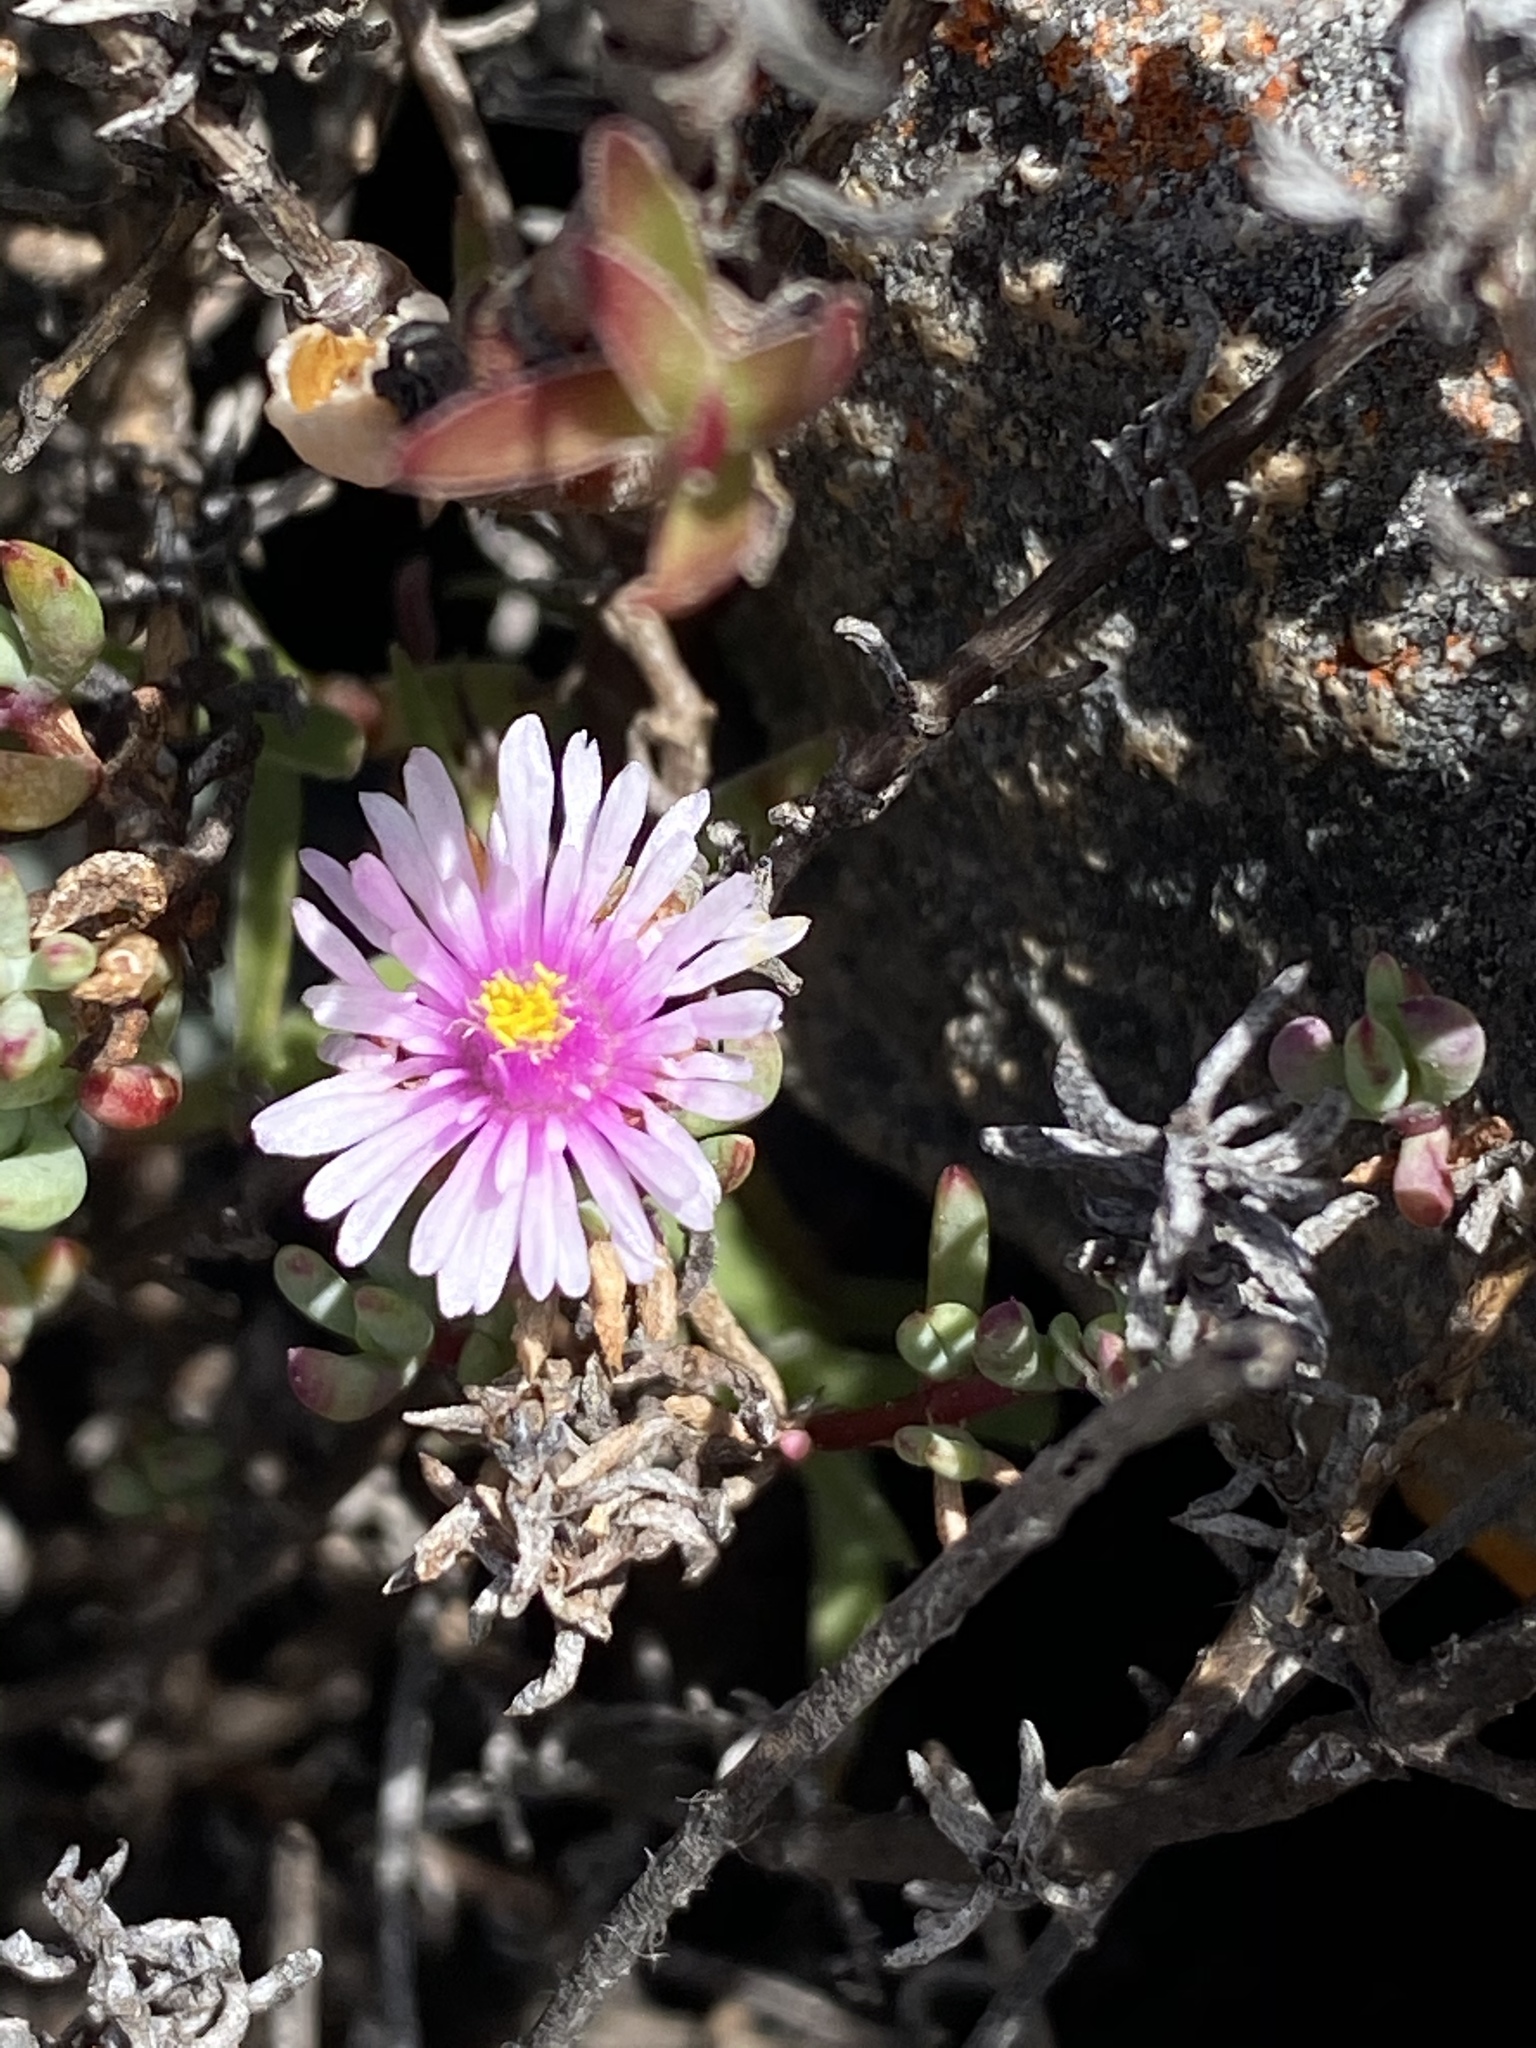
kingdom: Plantae
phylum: Tracheophyta
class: Magnoliopsida
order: Caryophyllales
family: Aizoaceae
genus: Lampranthus
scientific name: Lampranthus glomeratus
